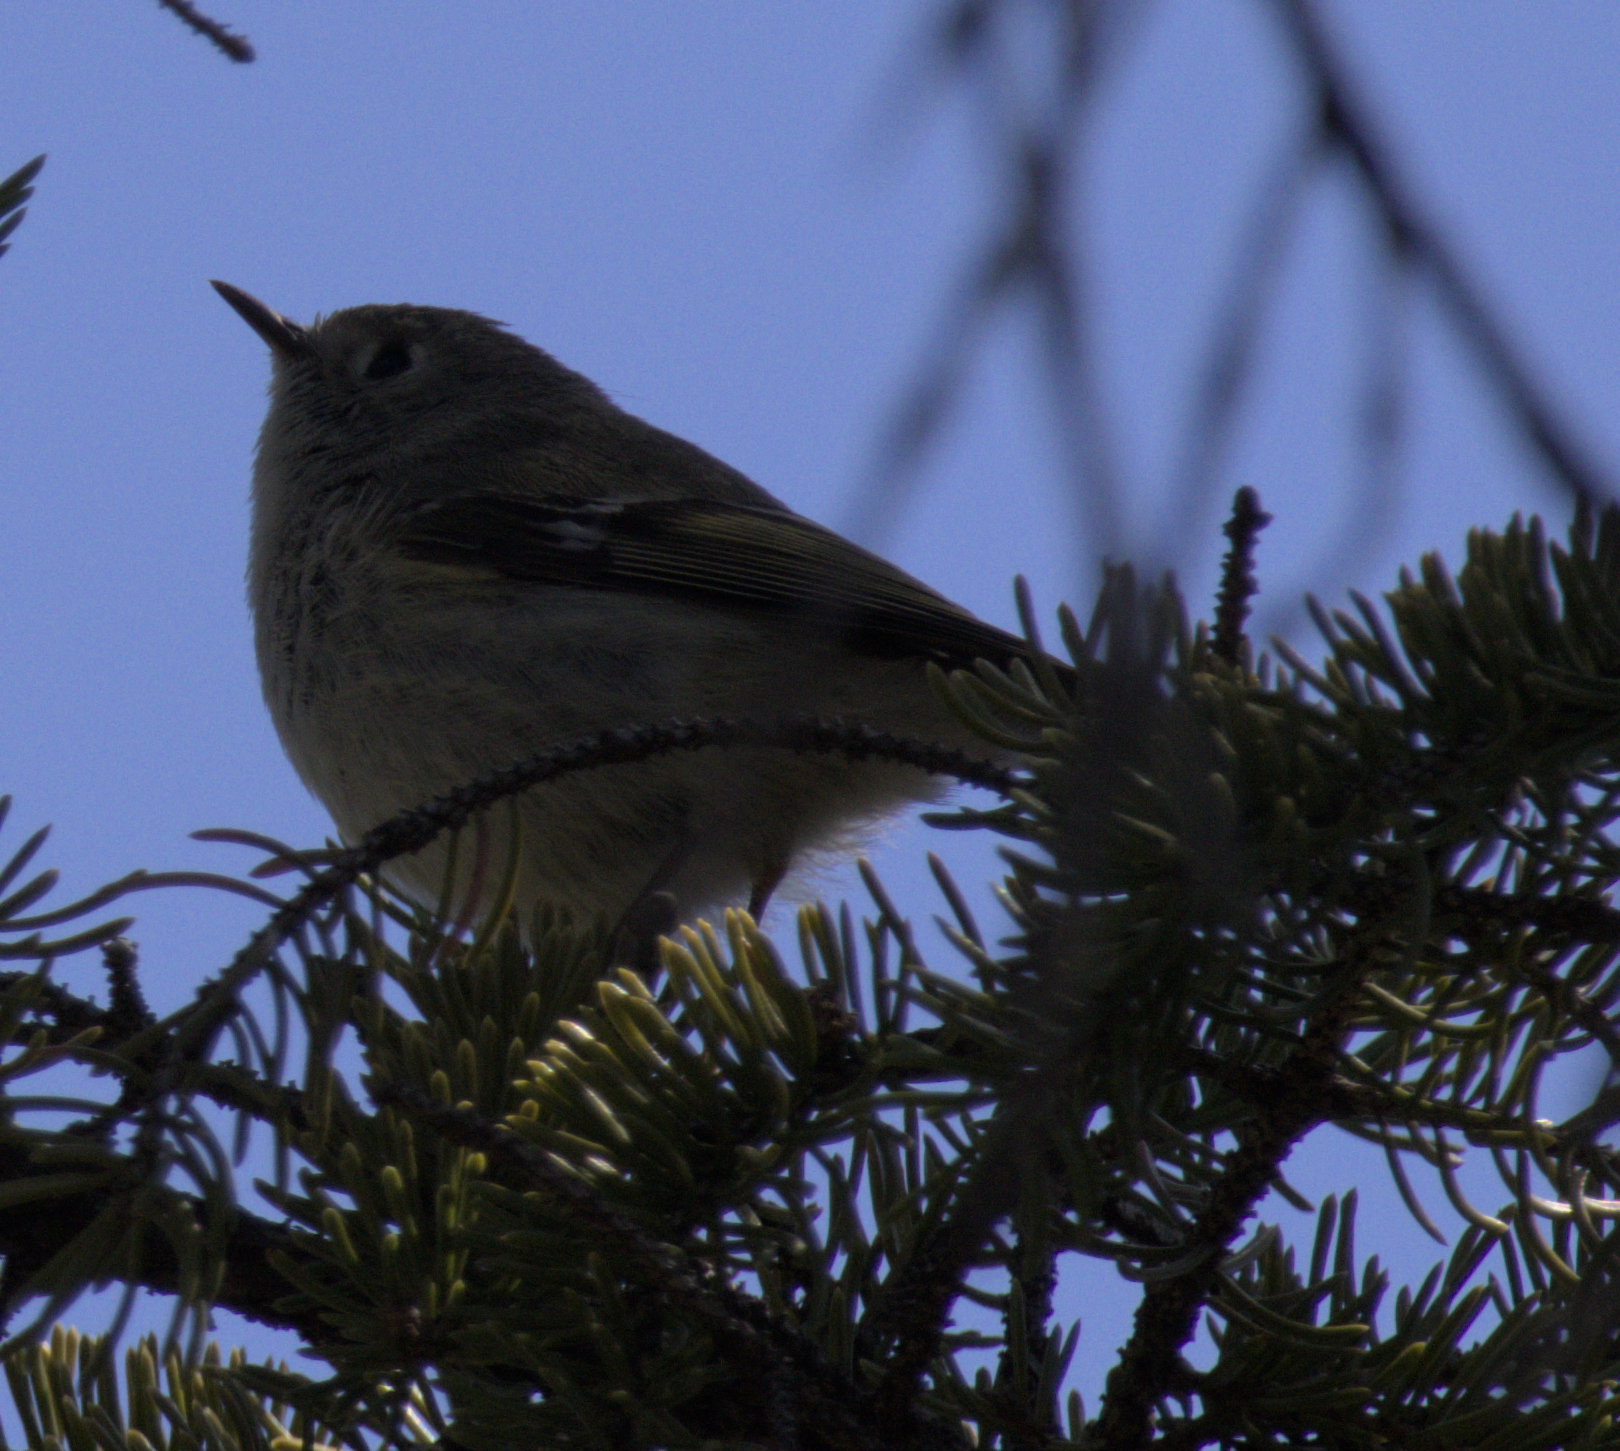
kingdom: Animalia
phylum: Chordata
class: Aves
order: Passeriformes
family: Regulidae
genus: Regulus
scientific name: Regulus calendula
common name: Ruby-crowned kinglet
